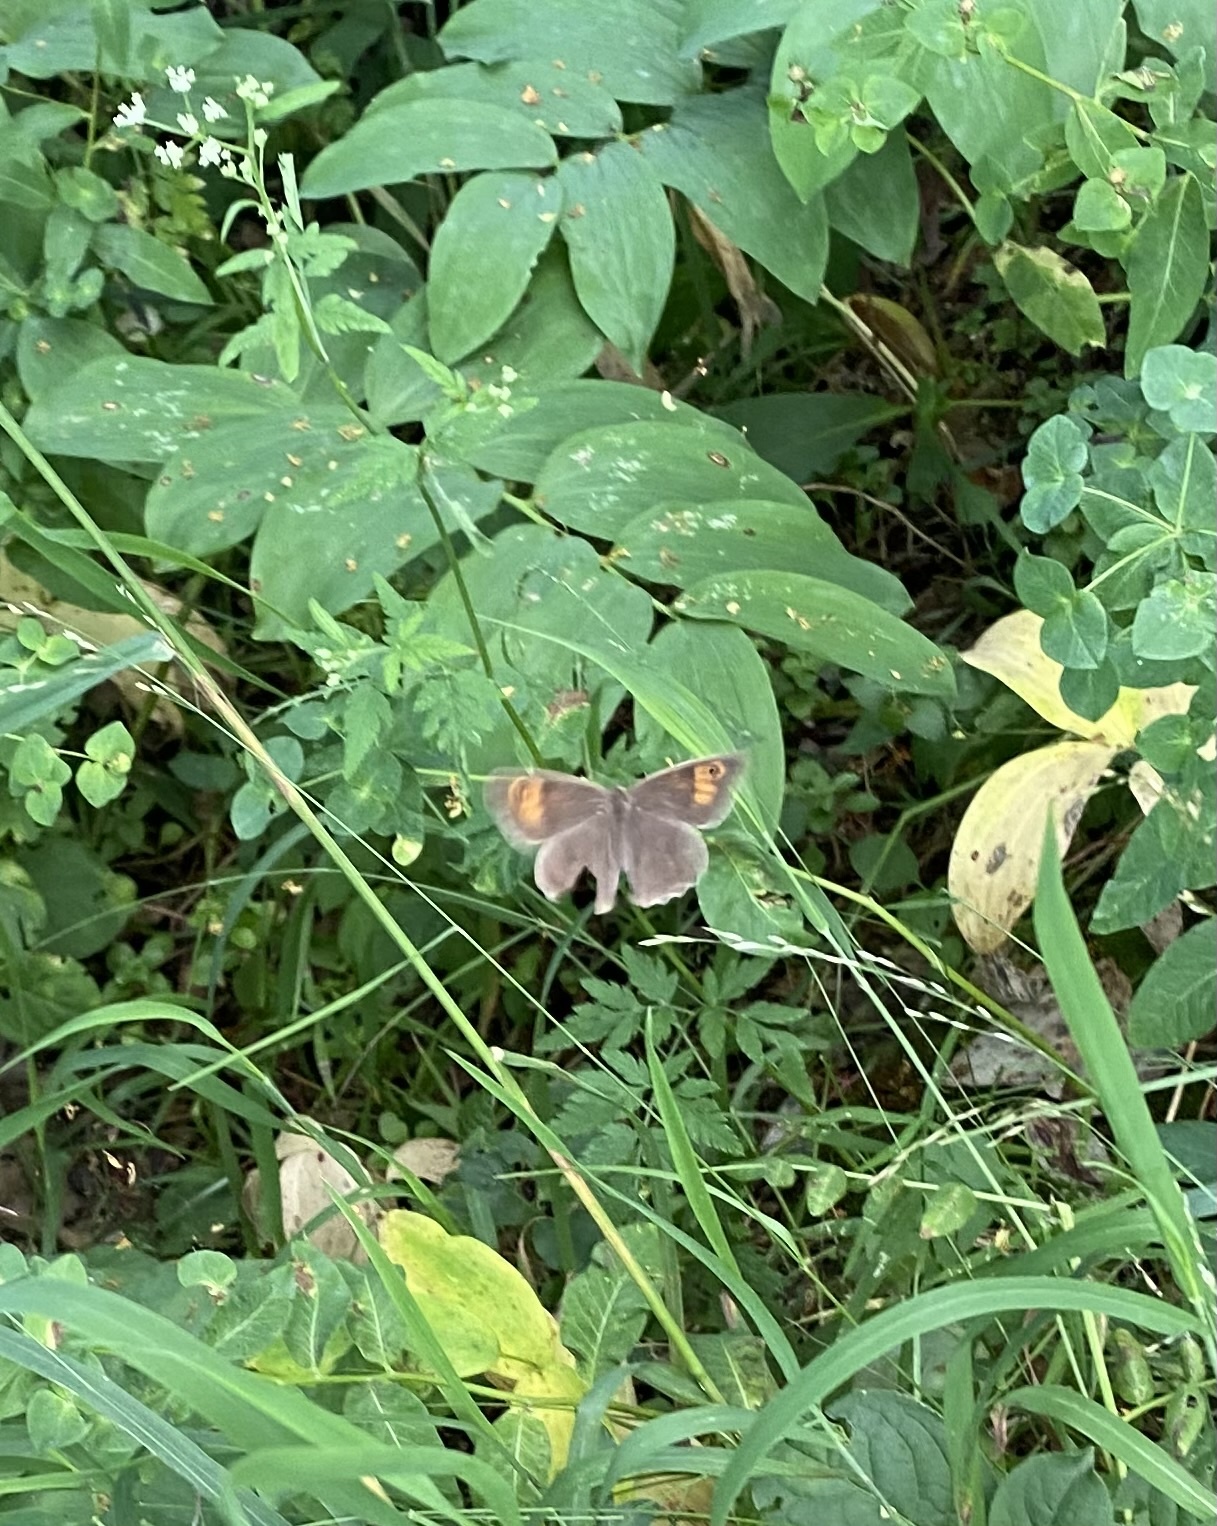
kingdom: Animalia
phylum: Arthropoda
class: Insecta
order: Lepidoptera
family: Nymphalidae
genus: Maniola
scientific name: Maniola jurtina
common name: Meadow brown
